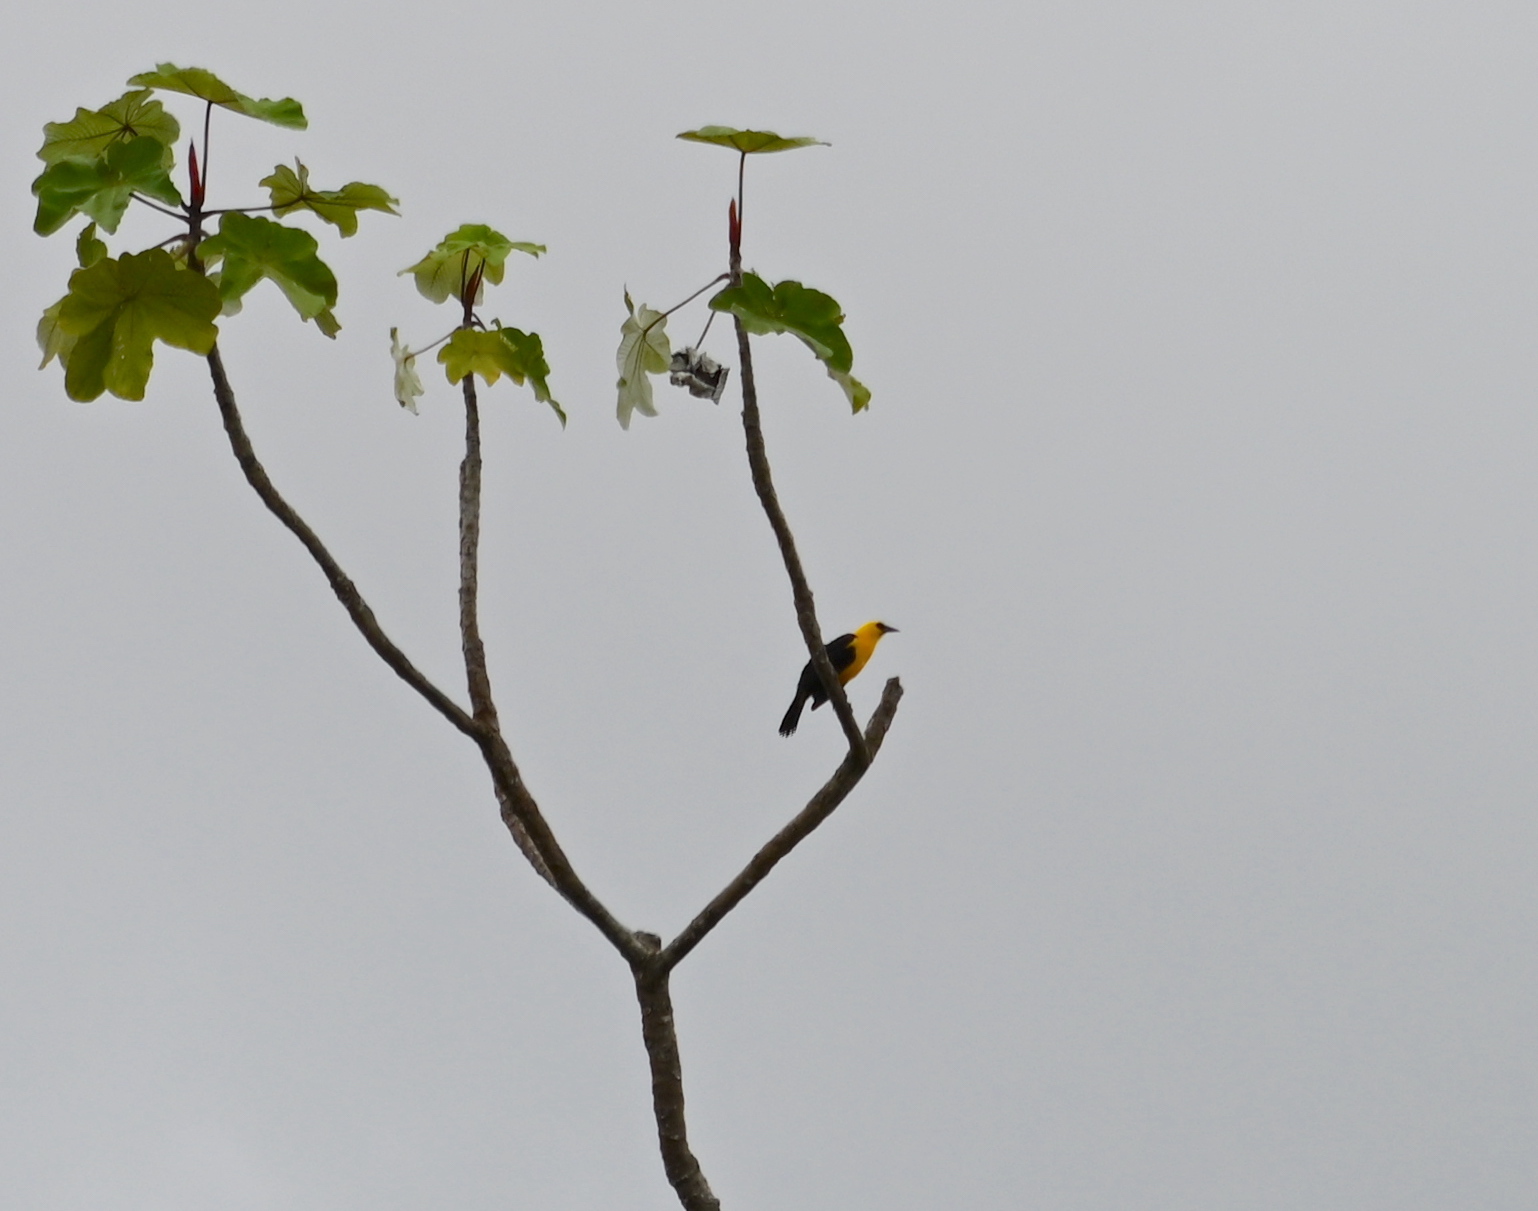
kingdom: Animalia
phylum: Chordata
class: Aves
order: Passeriformes
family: Icteridae
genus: Gymnomystax
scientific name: Gymnomystax mexicanus
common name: Oriole blackbird
